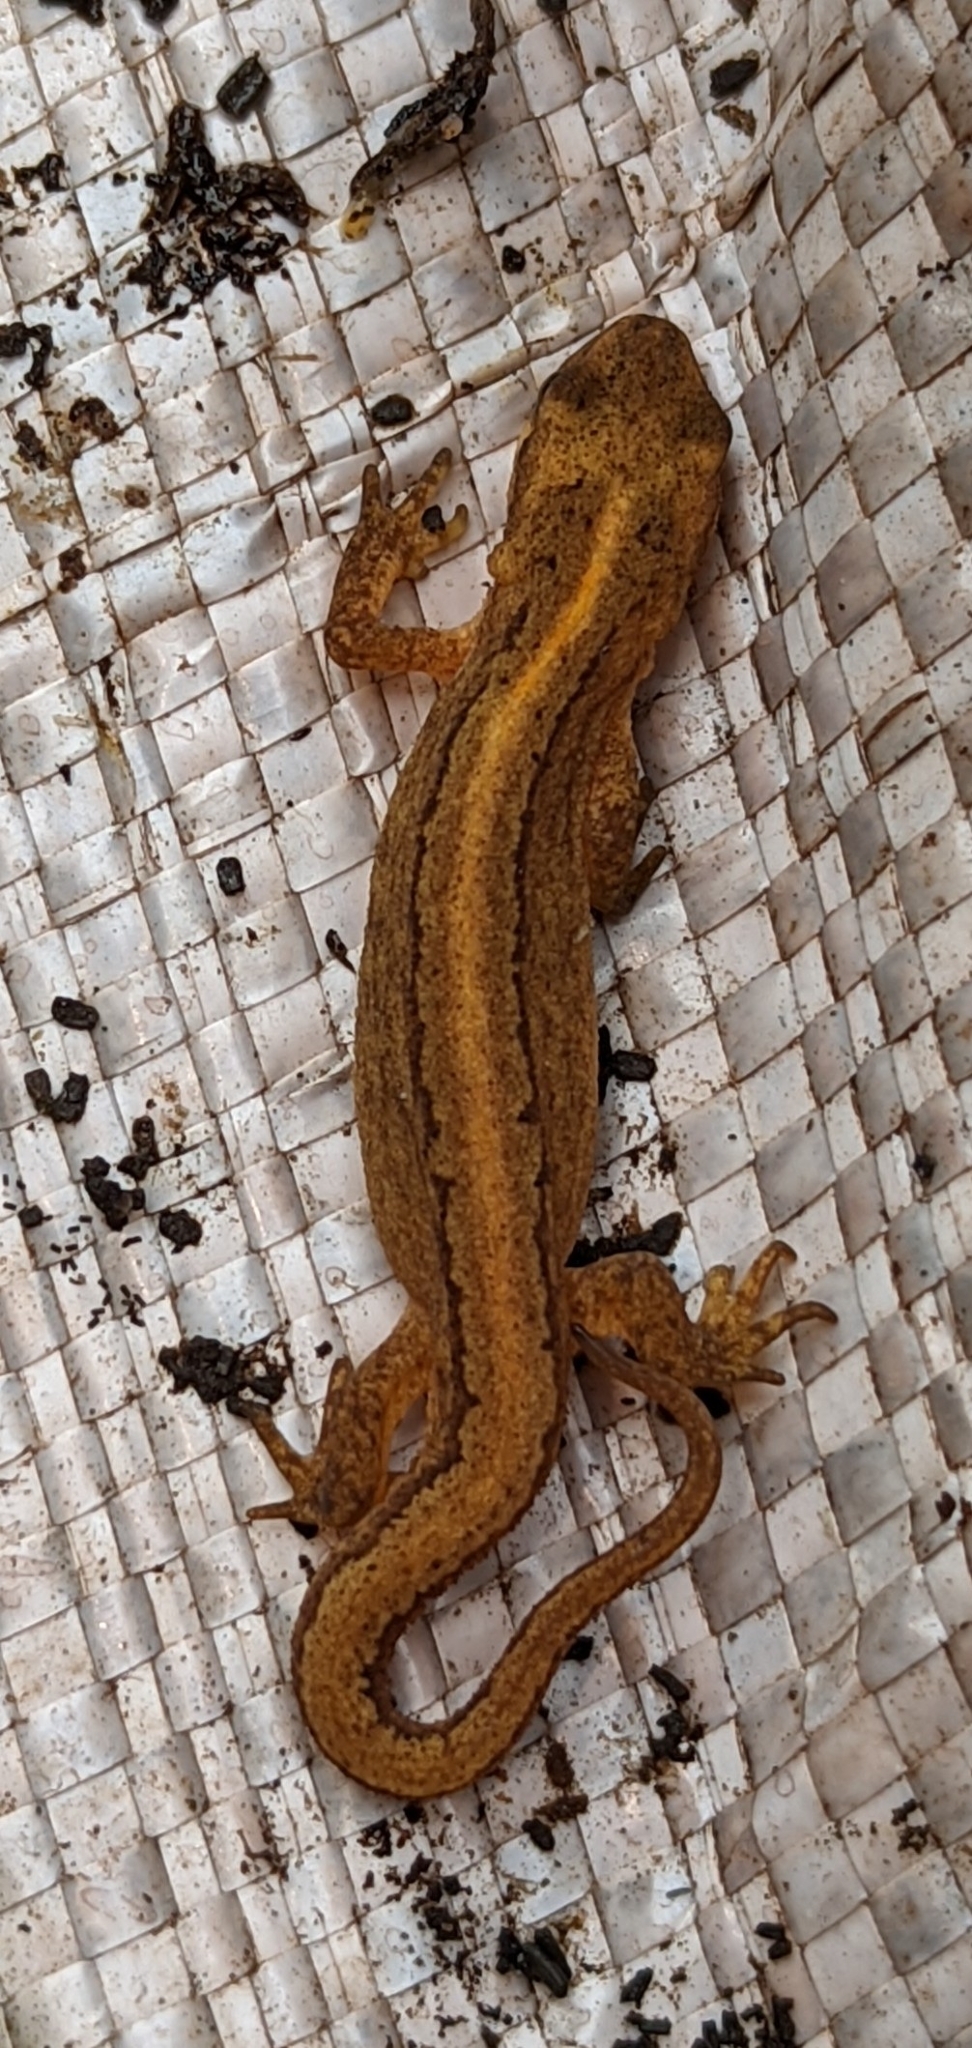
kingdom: Animalia
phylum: Chordata
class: Amphibia
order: Caudata
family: Salamandridae
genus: Lissotriton
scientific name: Lissotriton vulgaris
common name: Smooth newt
